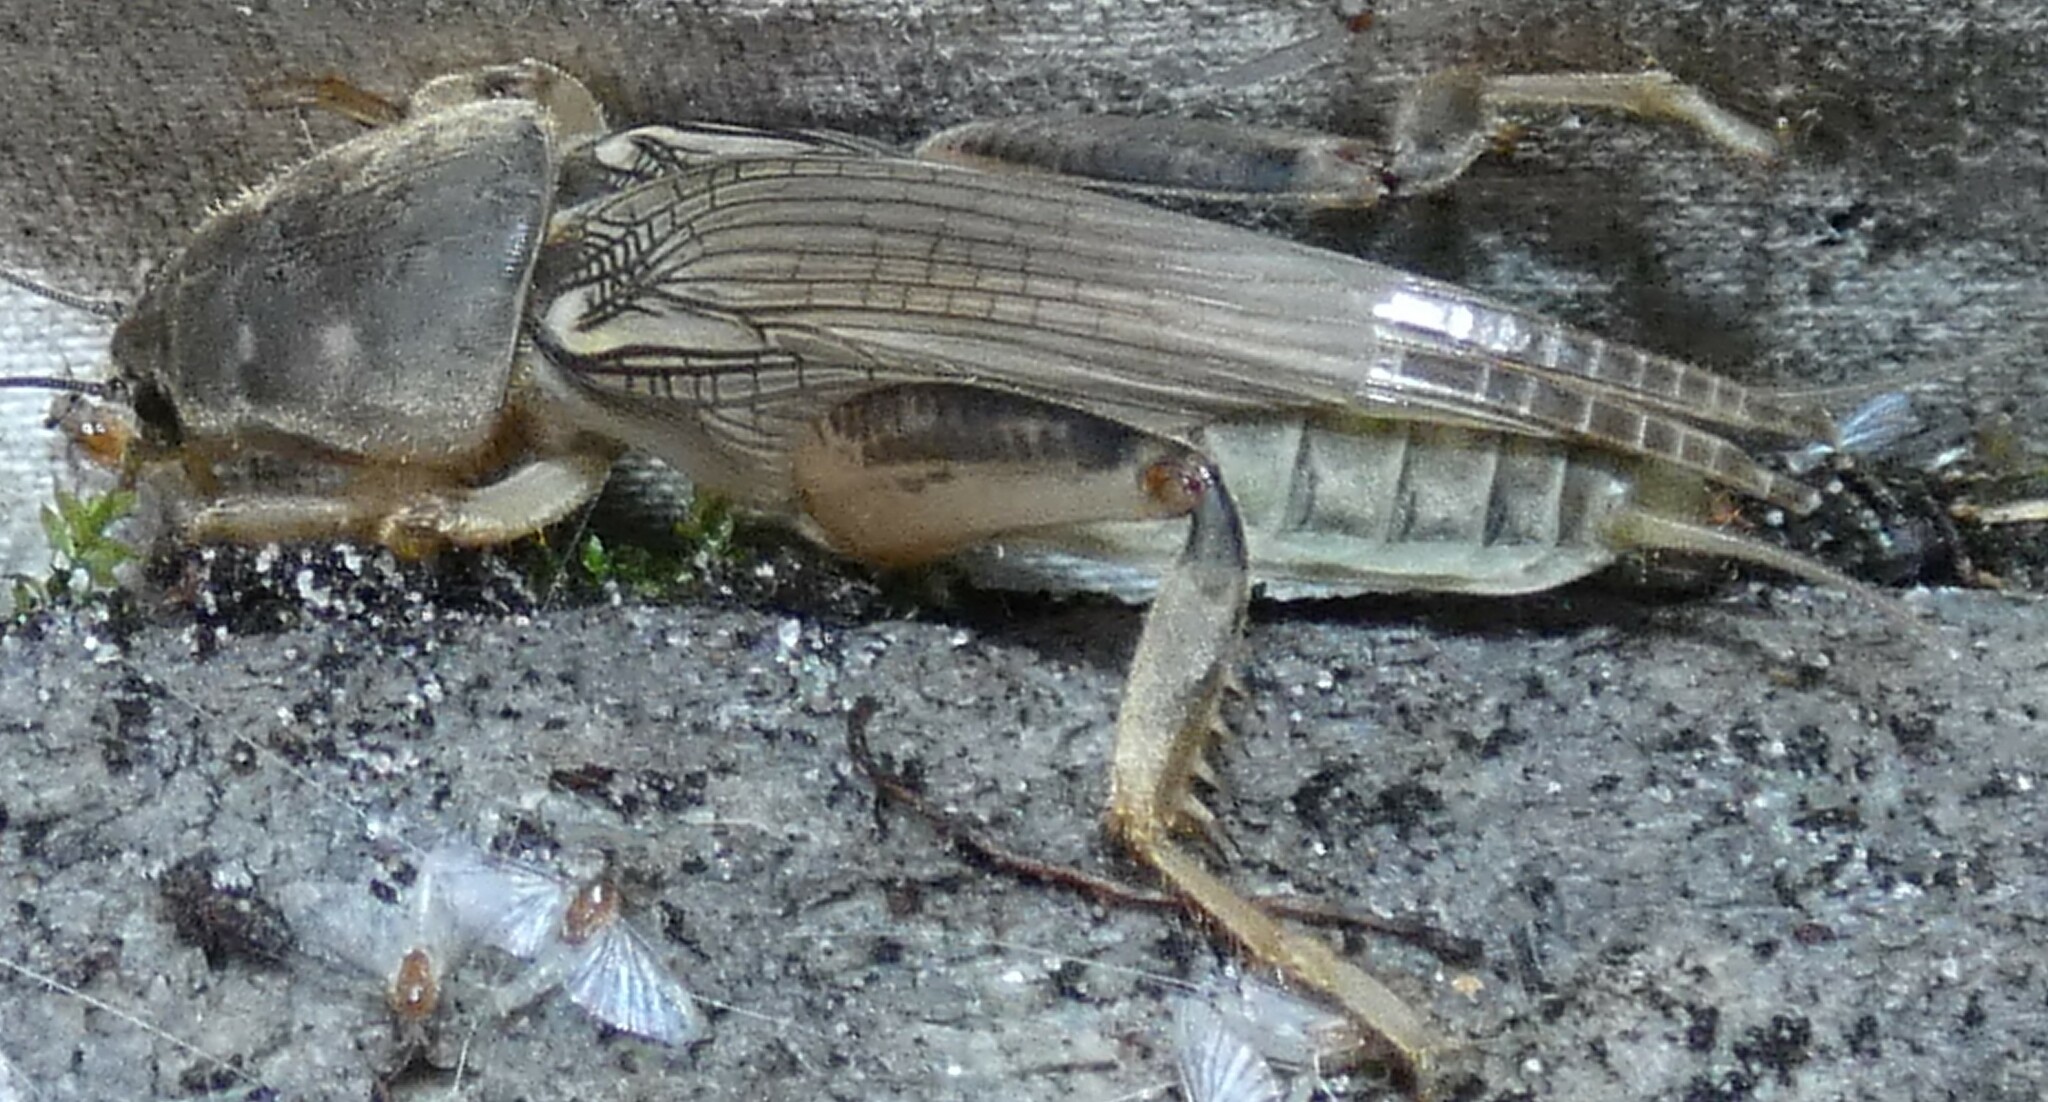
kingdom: Animalia
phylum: Arthropoda
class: Insecta
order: Orthoptera
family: Gryllotalpidae
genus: Neoscapteriscus
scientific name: Neoscapteriscus borellii
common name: Southern mole cricket
